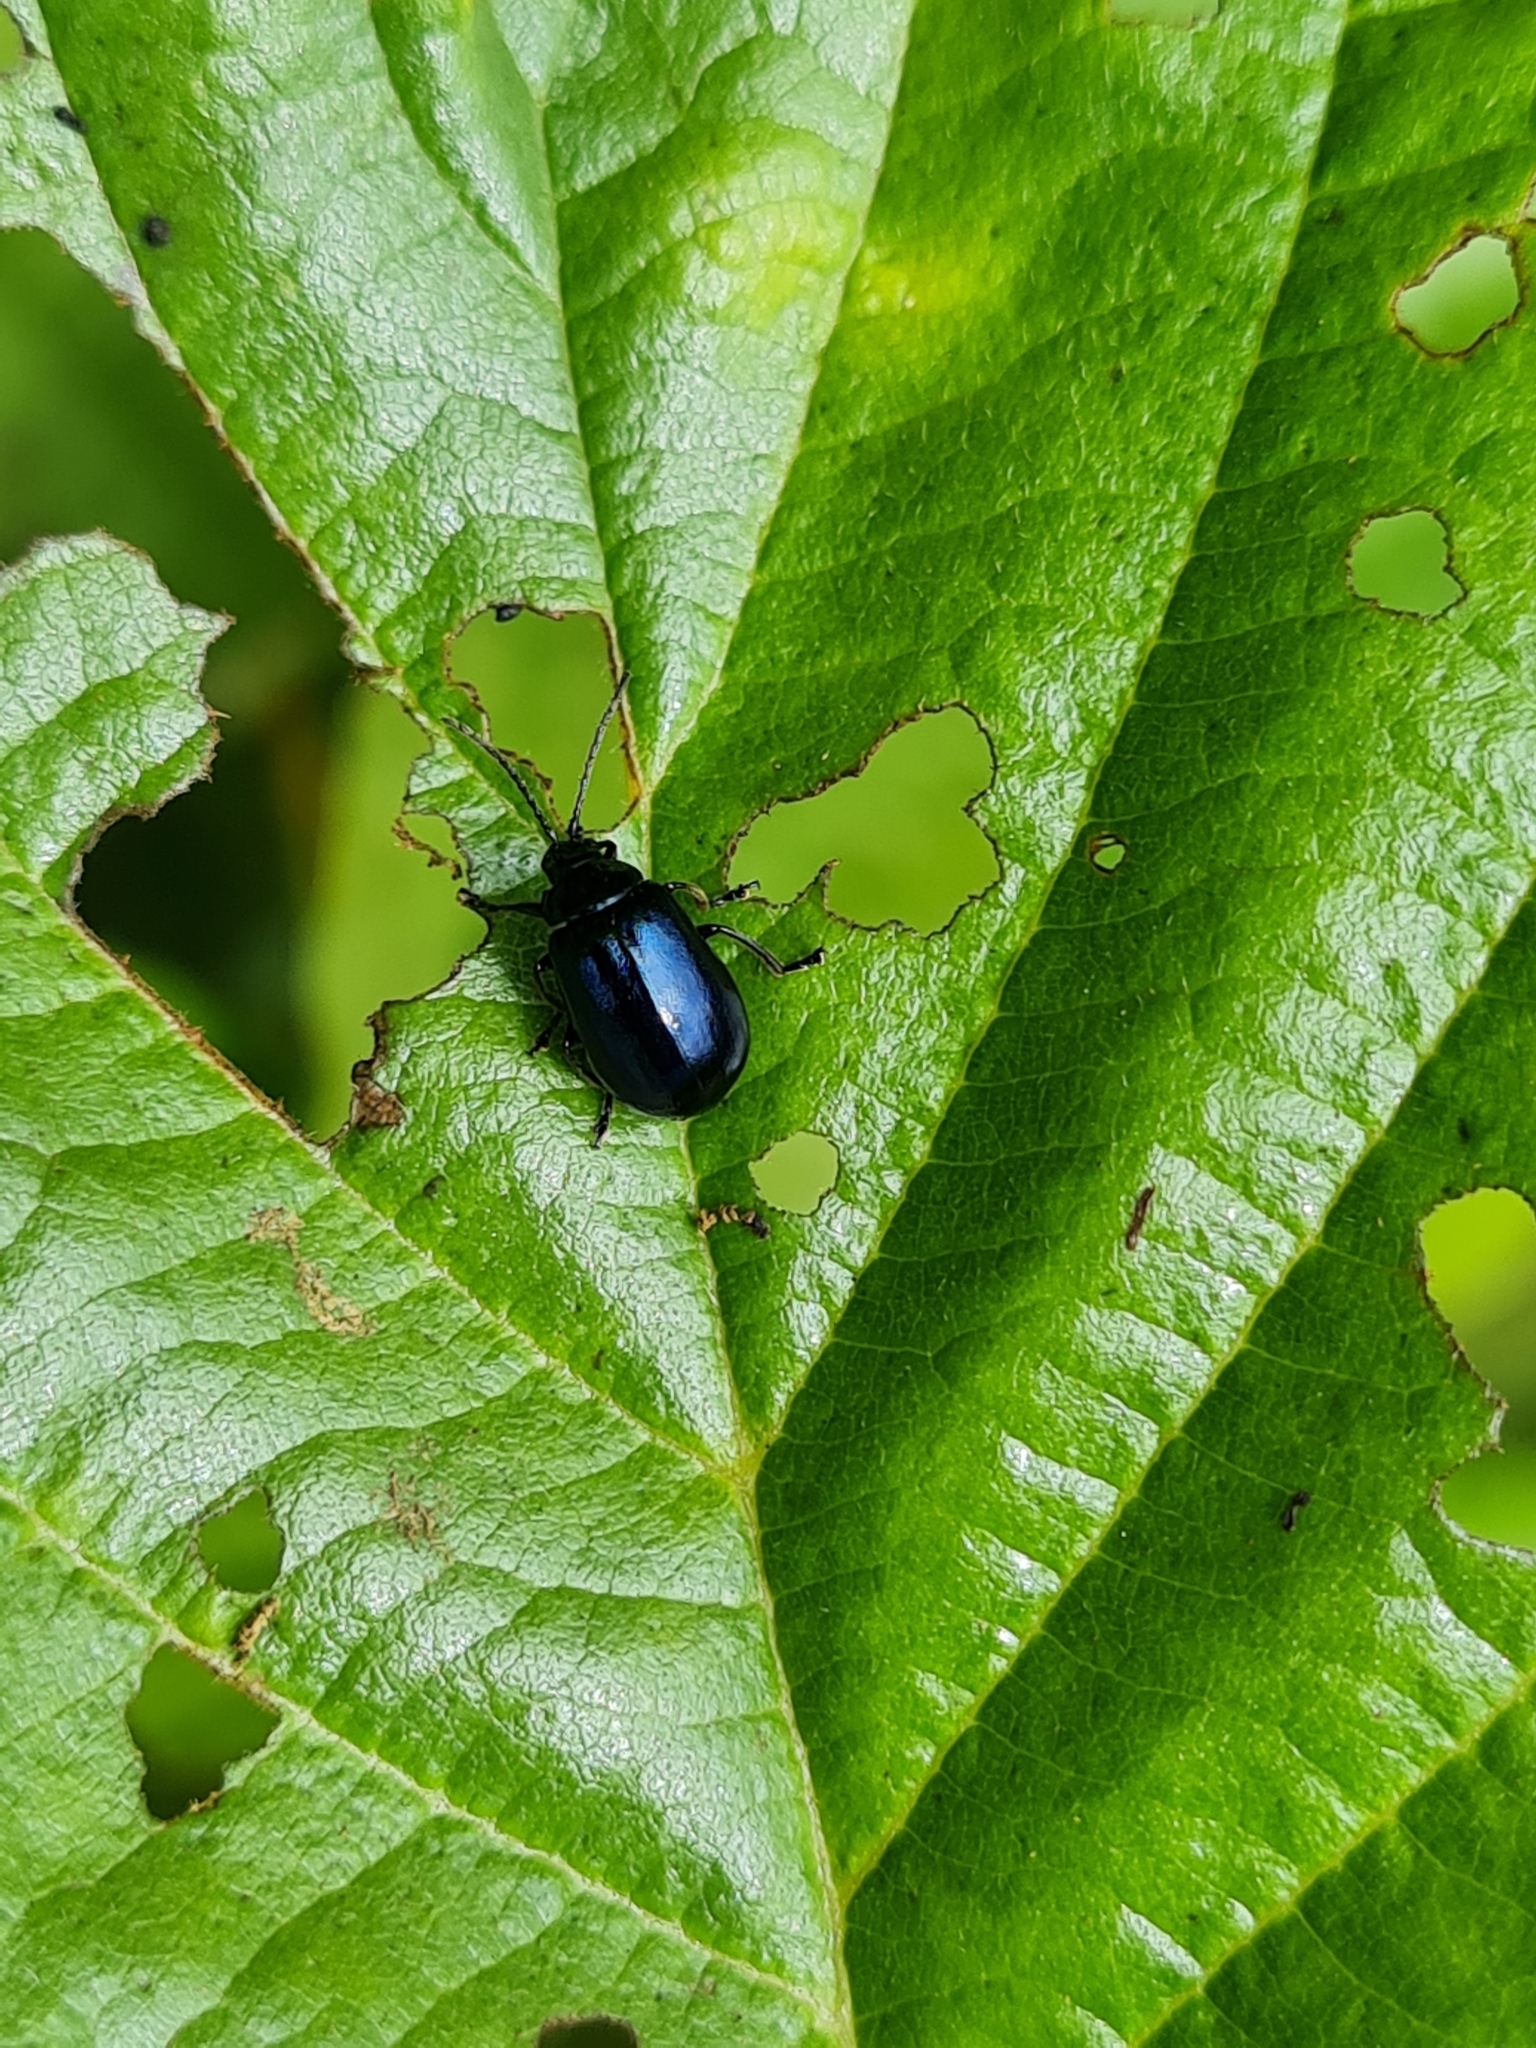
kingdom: Animalia
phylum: Arthropoda
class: Insecta
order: Coleoptera
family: Chrysomelidae
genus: Agelastica
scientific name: Agelastica alni
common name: Alder leaf beetle
